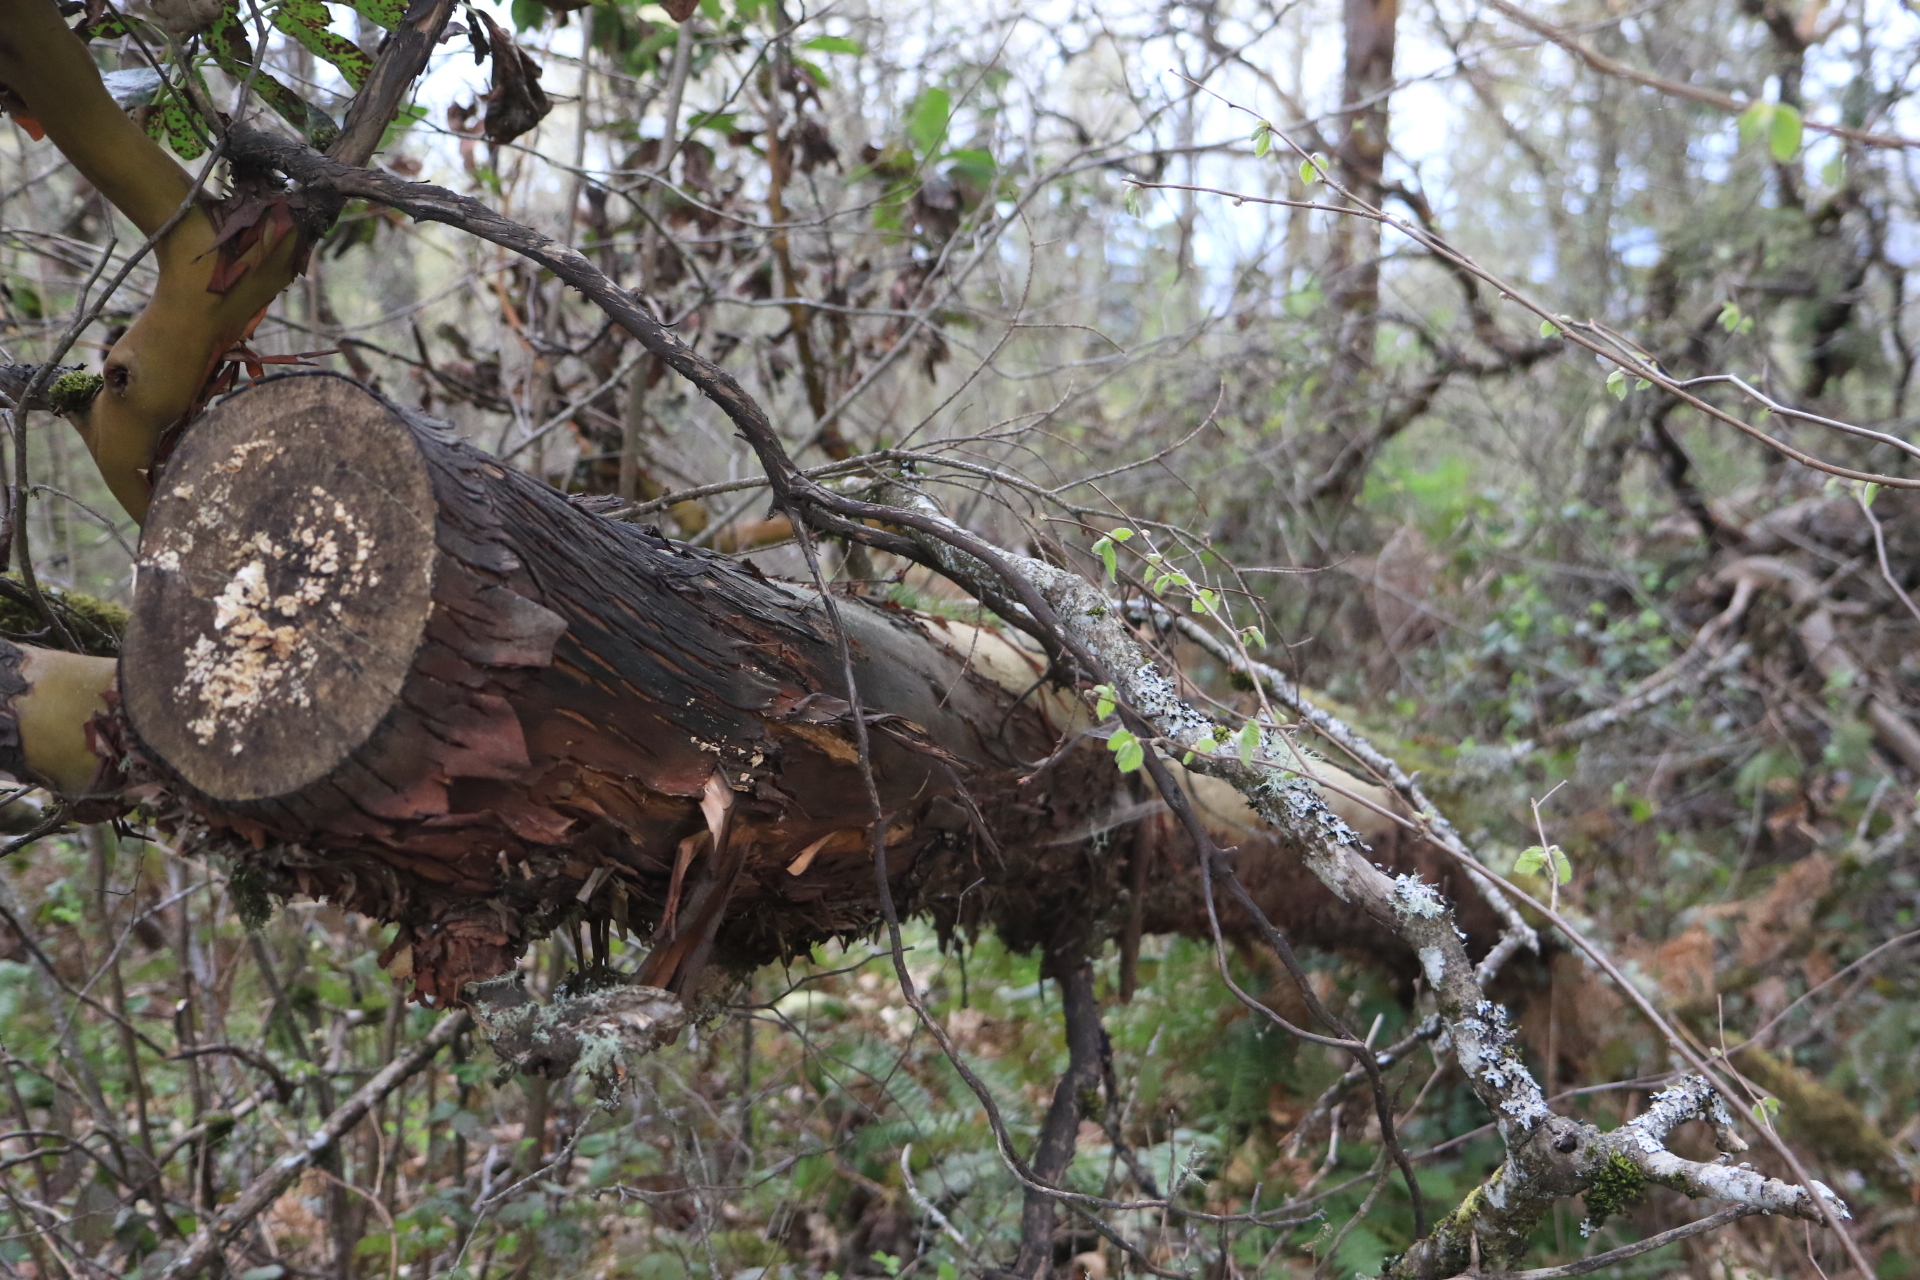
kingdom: Plantae
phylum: Tracheophyta
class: Magnoliopsida
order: Ericales
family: Ericaceae
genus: Arbutus
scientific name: Arbutus menziesii
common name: Pacific madrone
